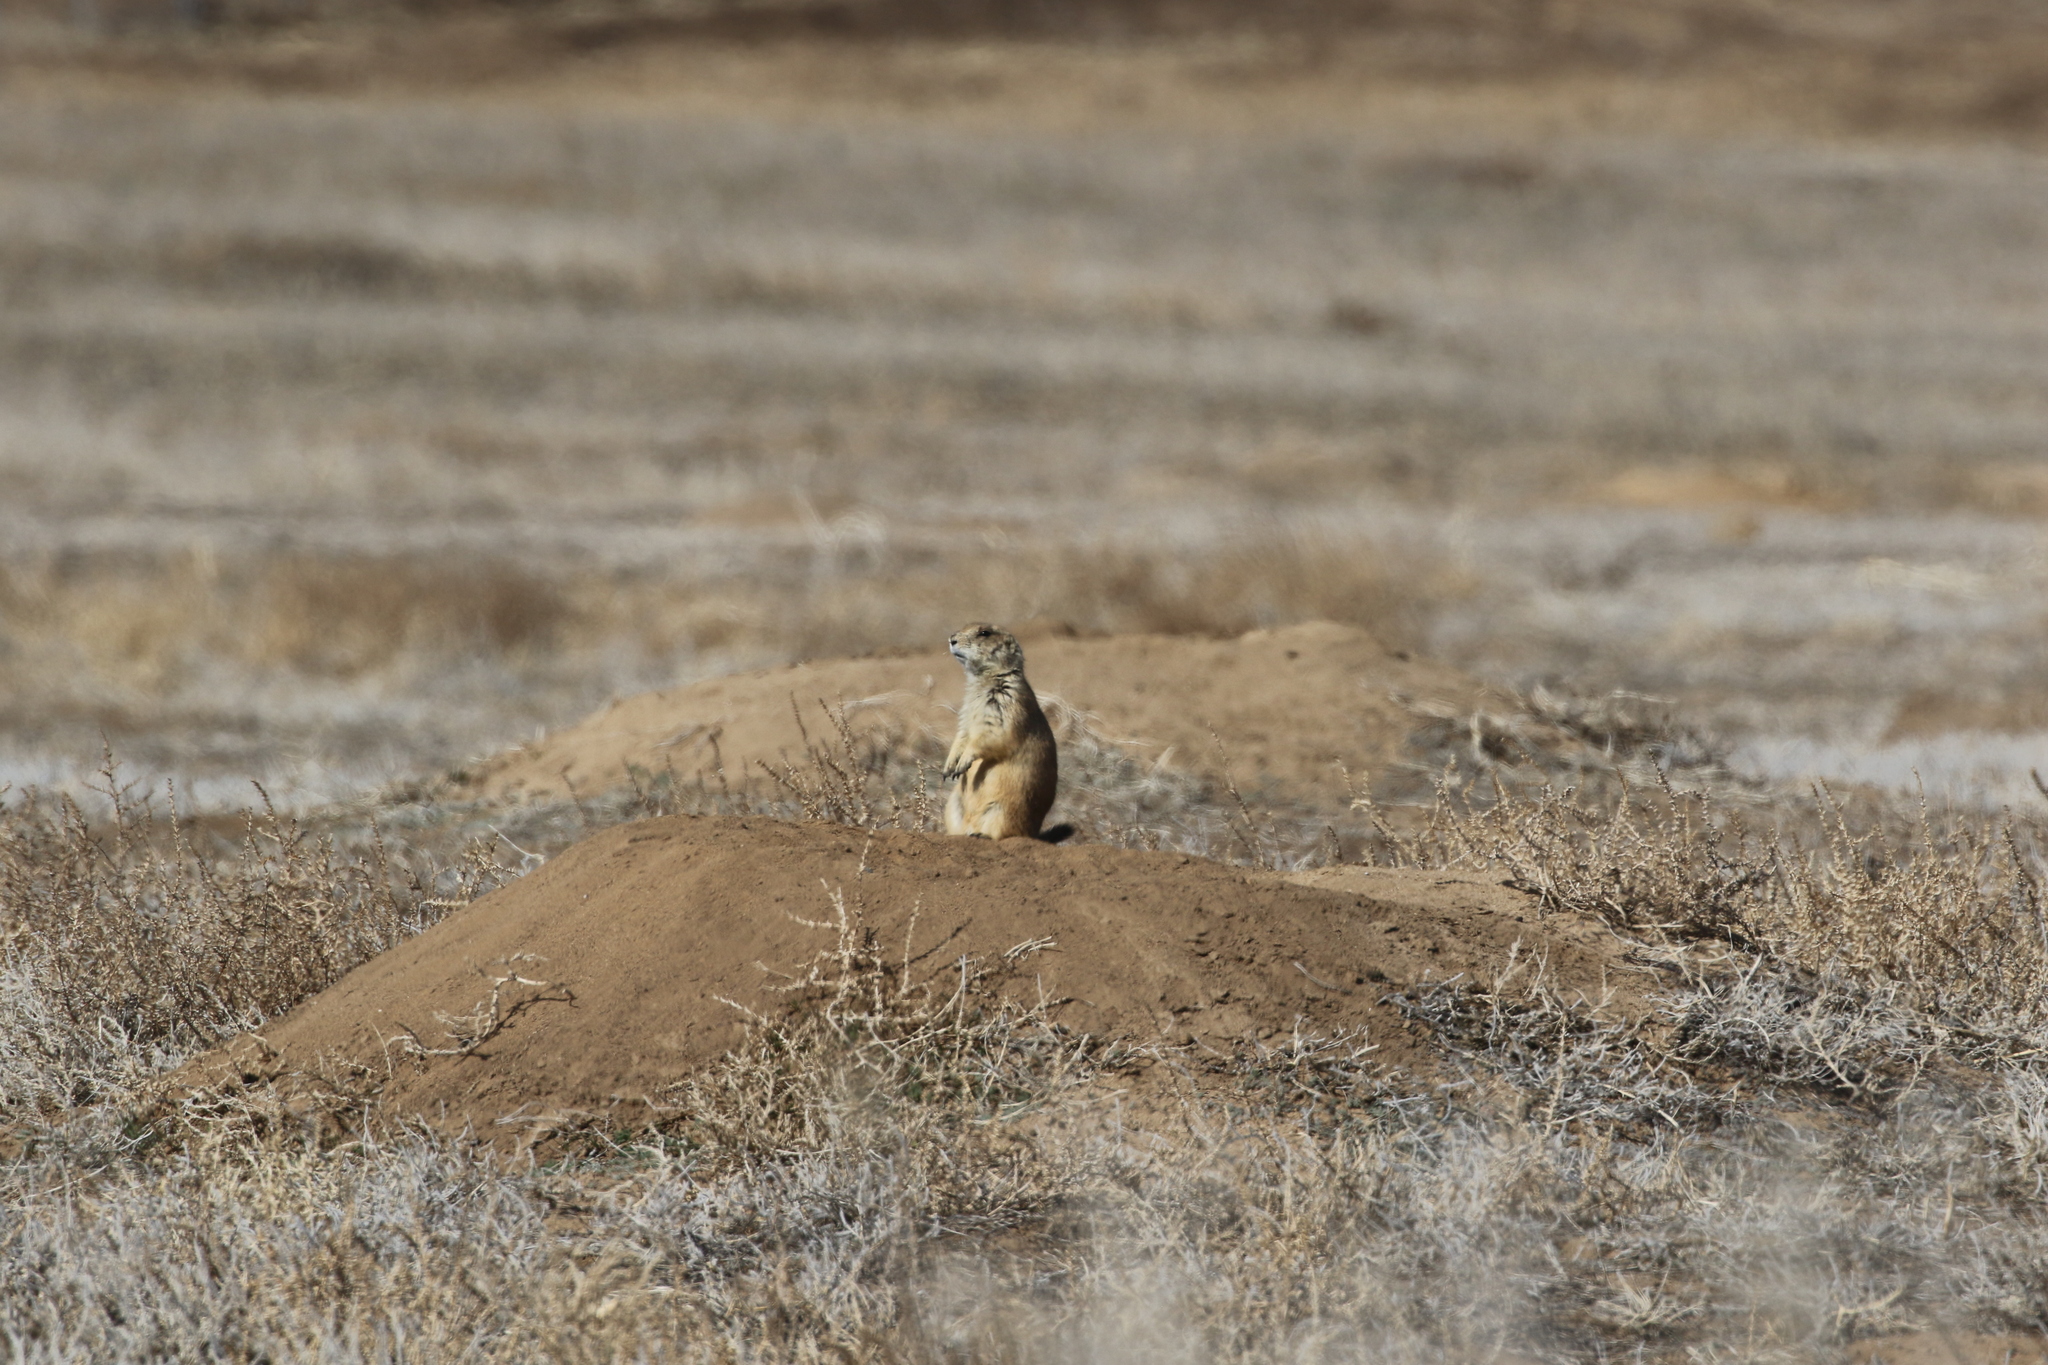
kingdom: Animalia
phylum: Chordata
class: Mammalia
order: Rodentia
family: Sciuridae
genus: Cynomys
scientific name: Cynomys ludovicianus
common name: Black-tailed prairie dog
